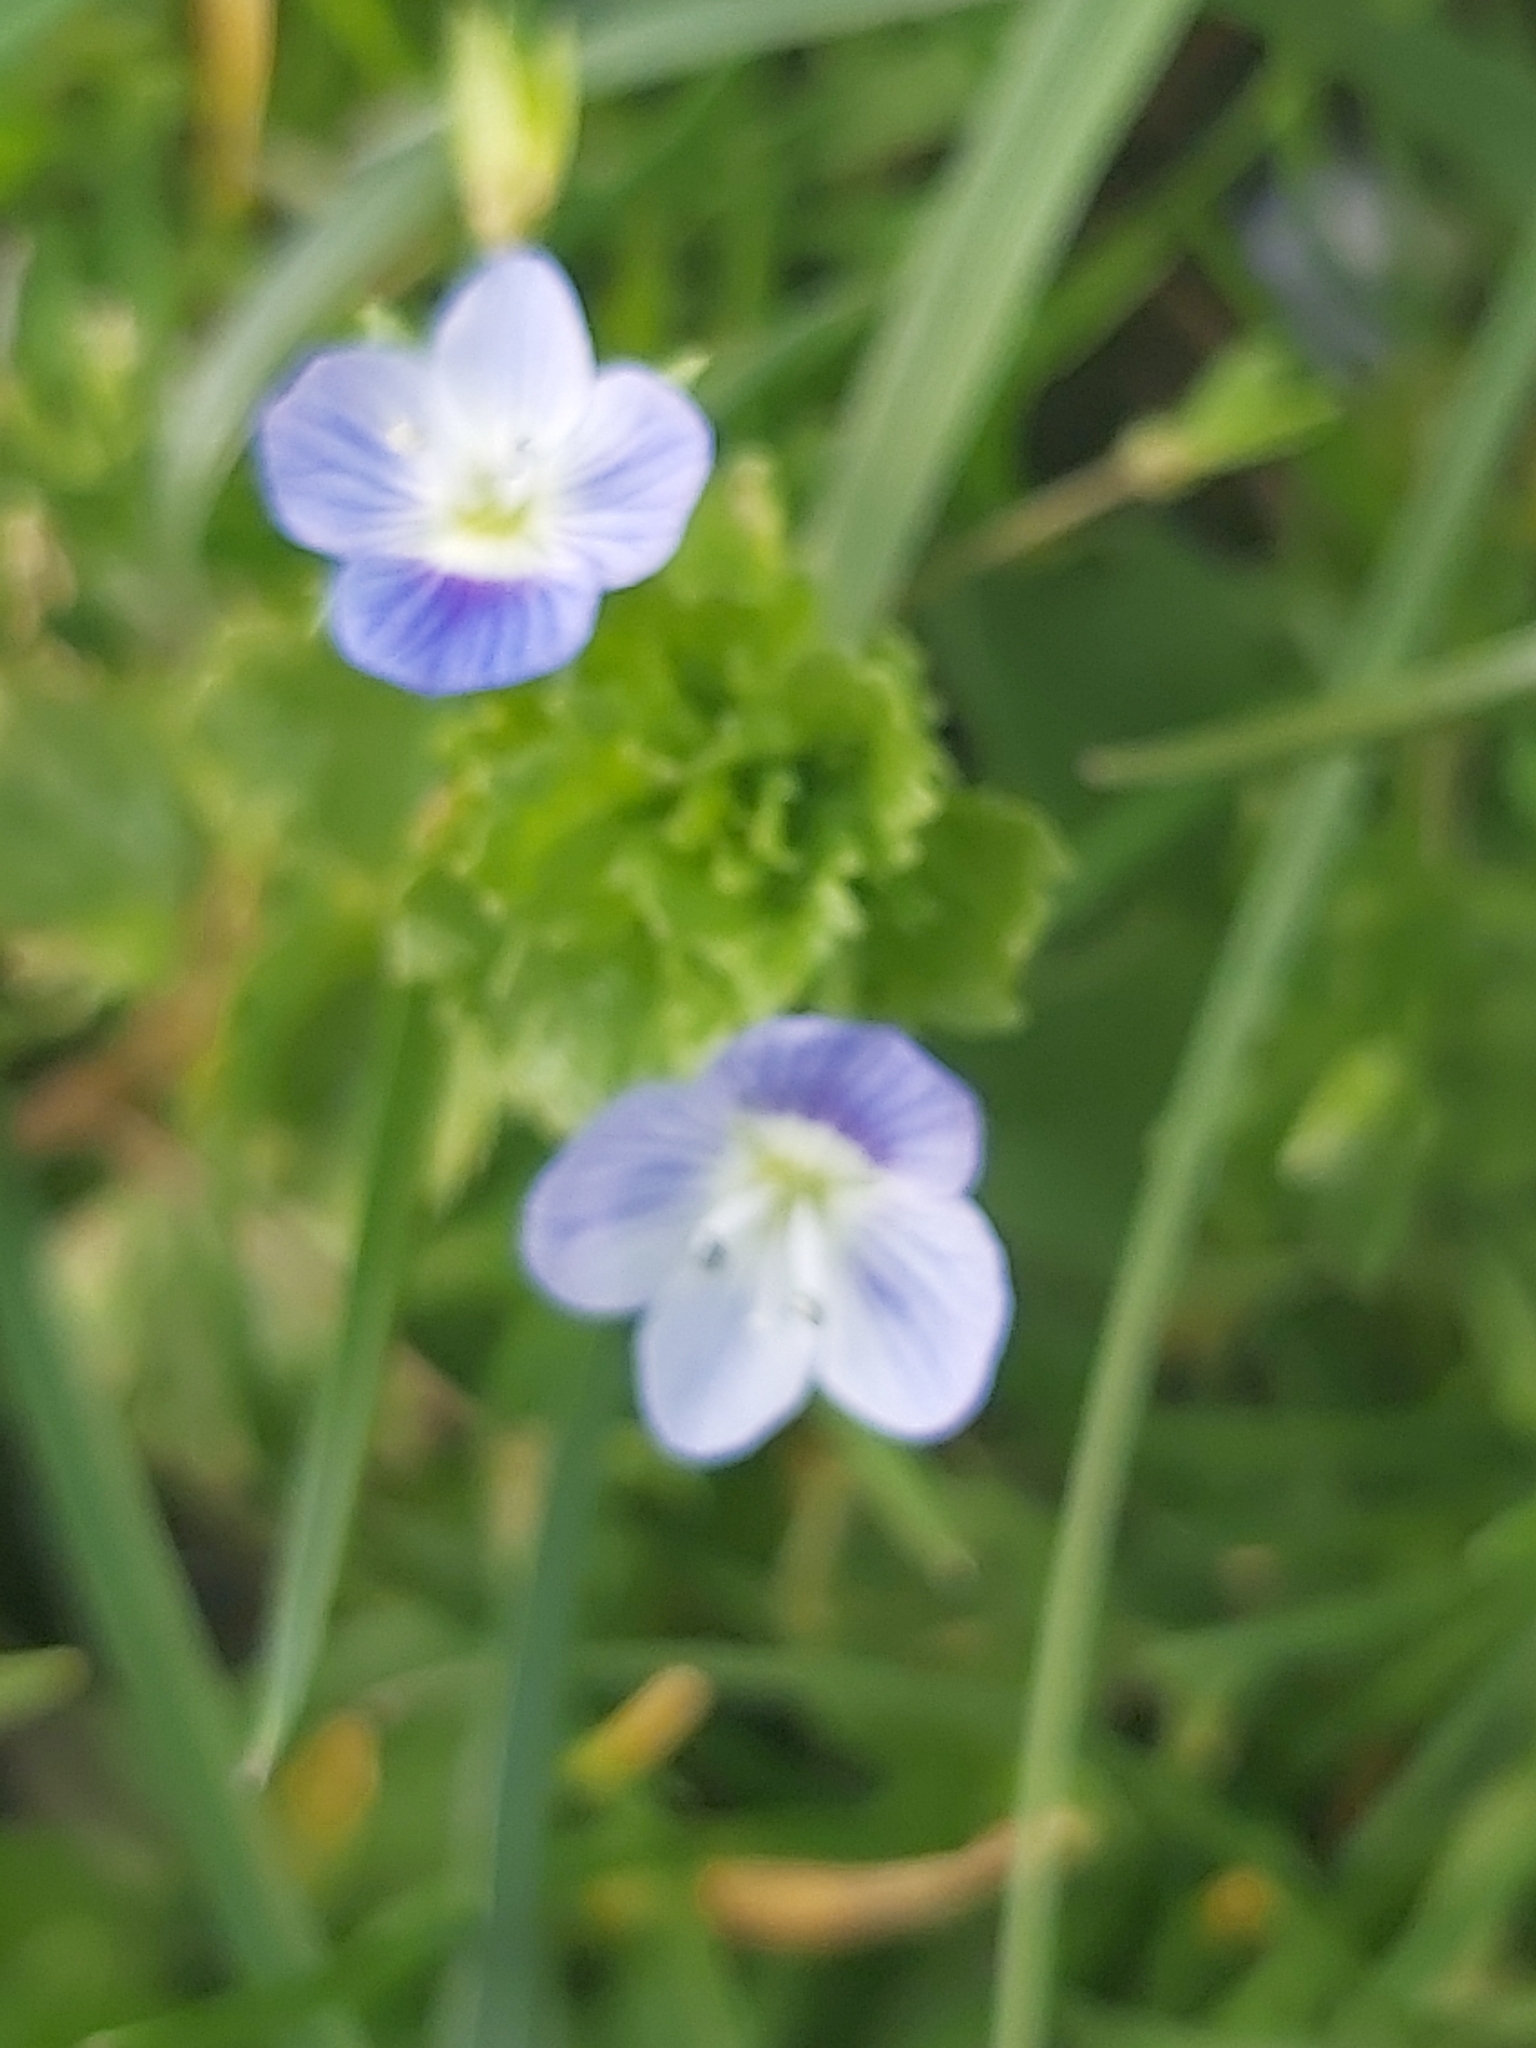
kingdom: Plantae
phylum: Tracheophyta
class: Magnoliopsida
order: Lamiales
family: Plantaginaceae
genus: Veronica
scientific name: Veronica persica
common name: Common field-speedwell
